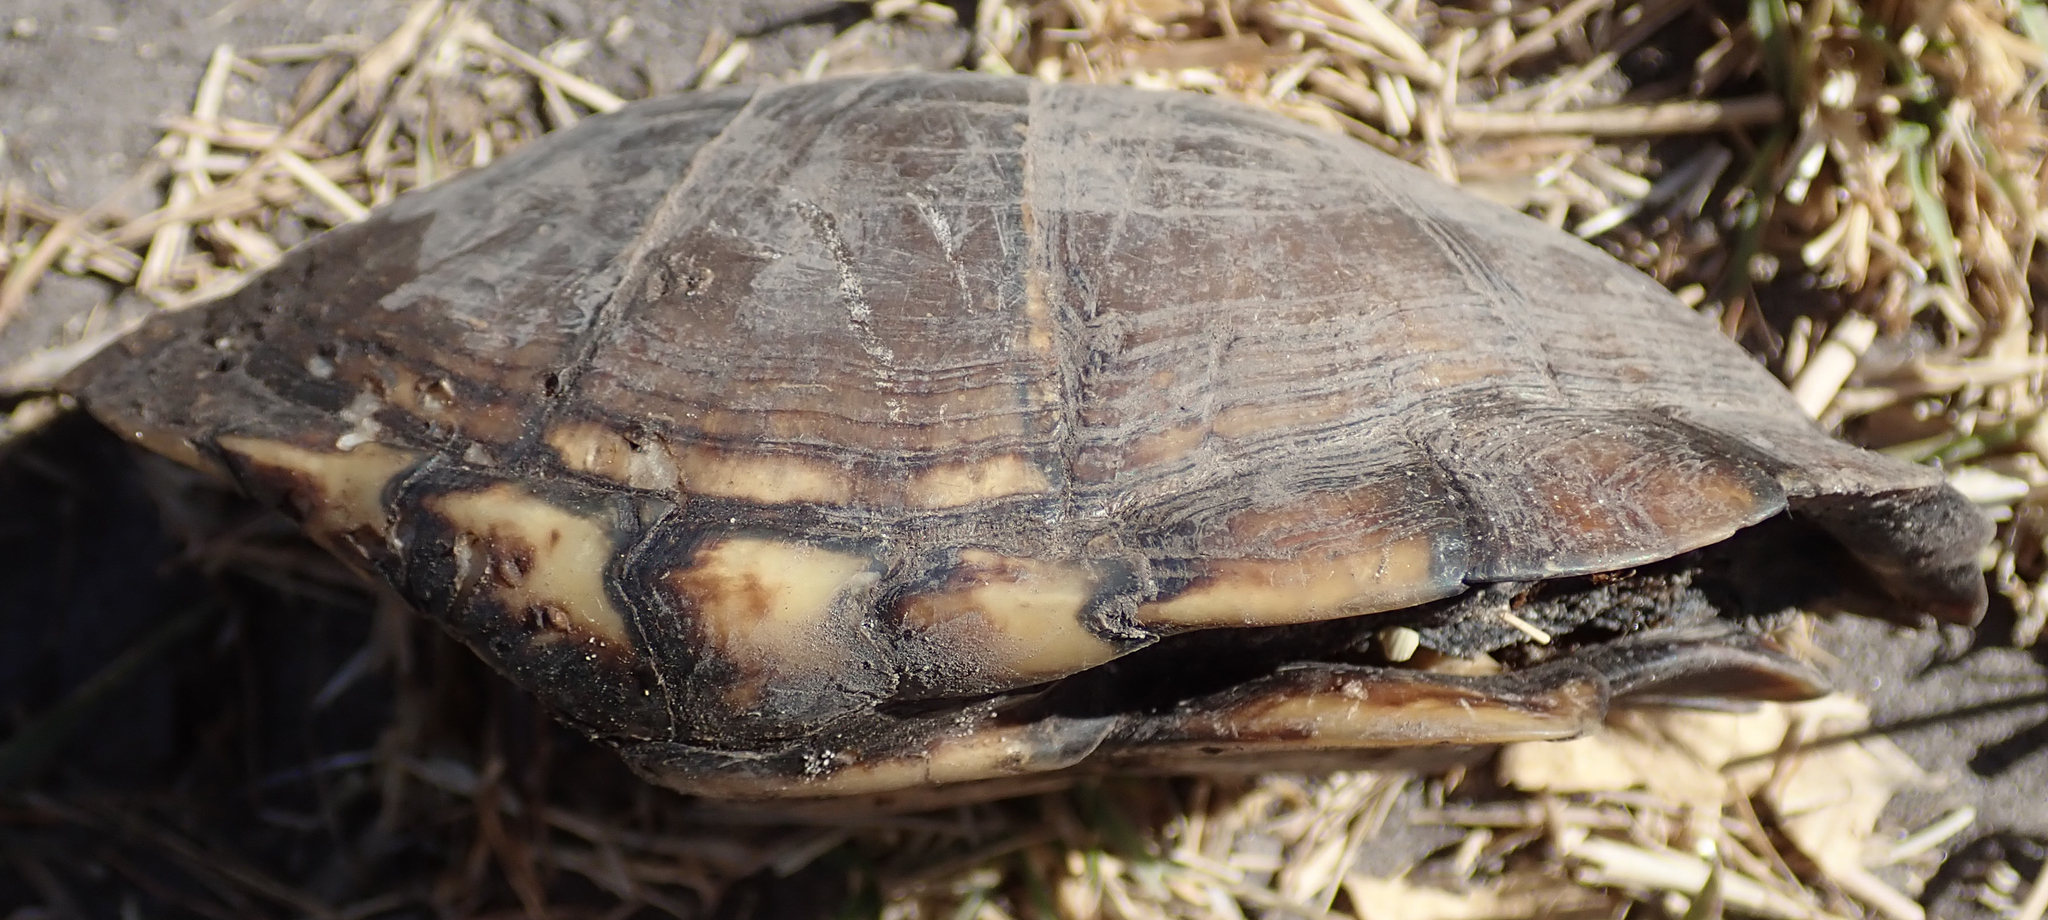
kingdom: Animalia
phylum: Chordata
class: Testudines
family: Pelomedusidae
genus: Pelusios
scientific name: Pelusios bechuanicus
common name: Okavango mud turtle
